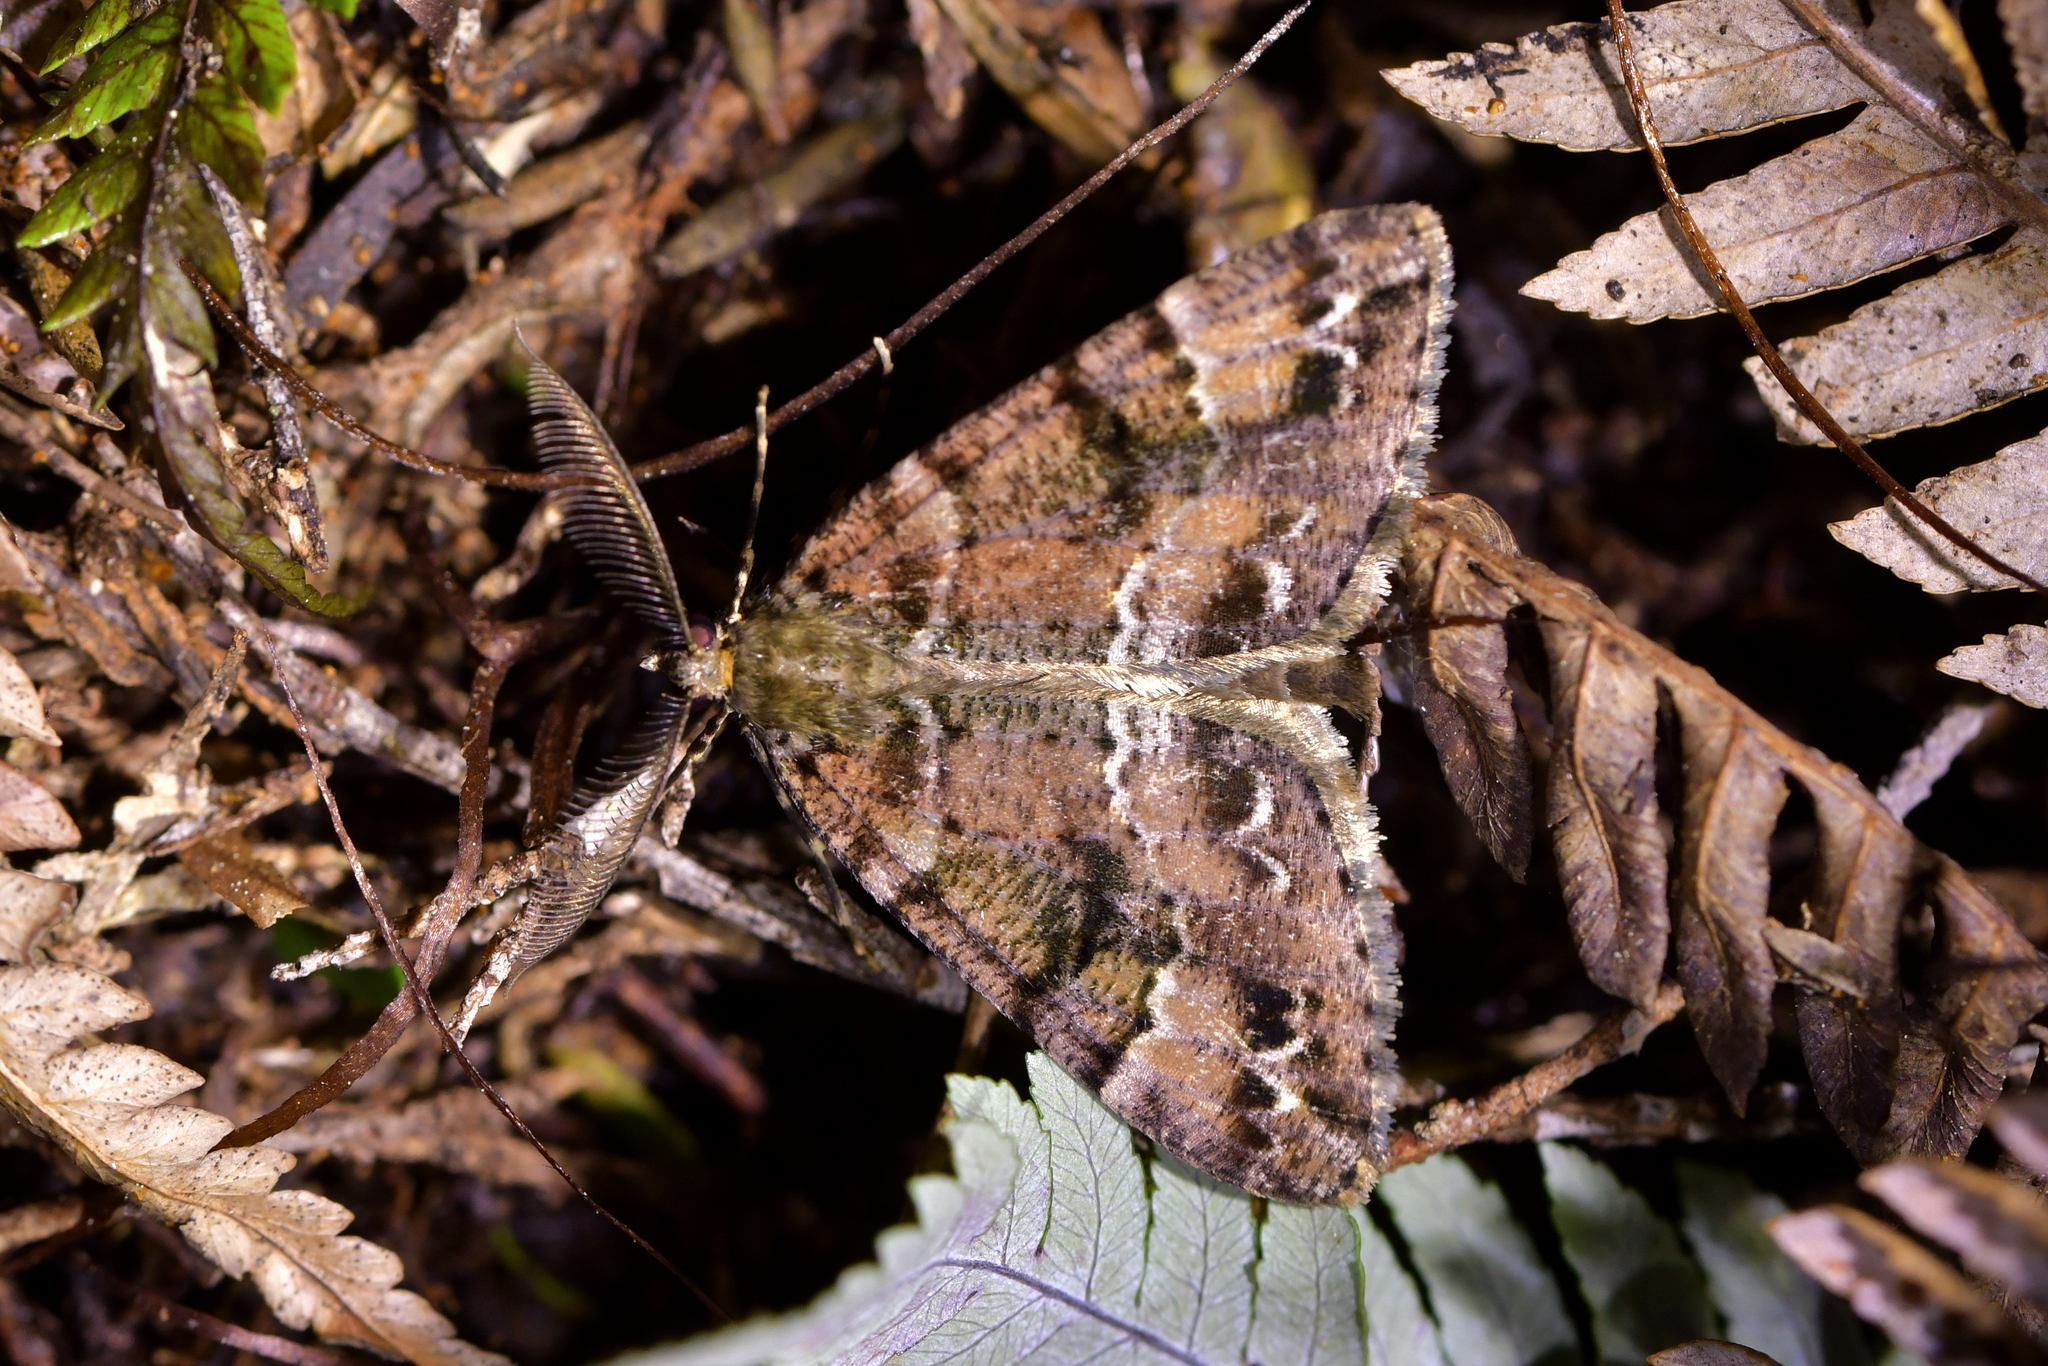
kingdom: Animalia
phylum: Arthropoda
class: Insecta
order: Lepidoptera
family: Geometridae
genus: Pseudocoremia
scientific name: Pseudocoremia productata
